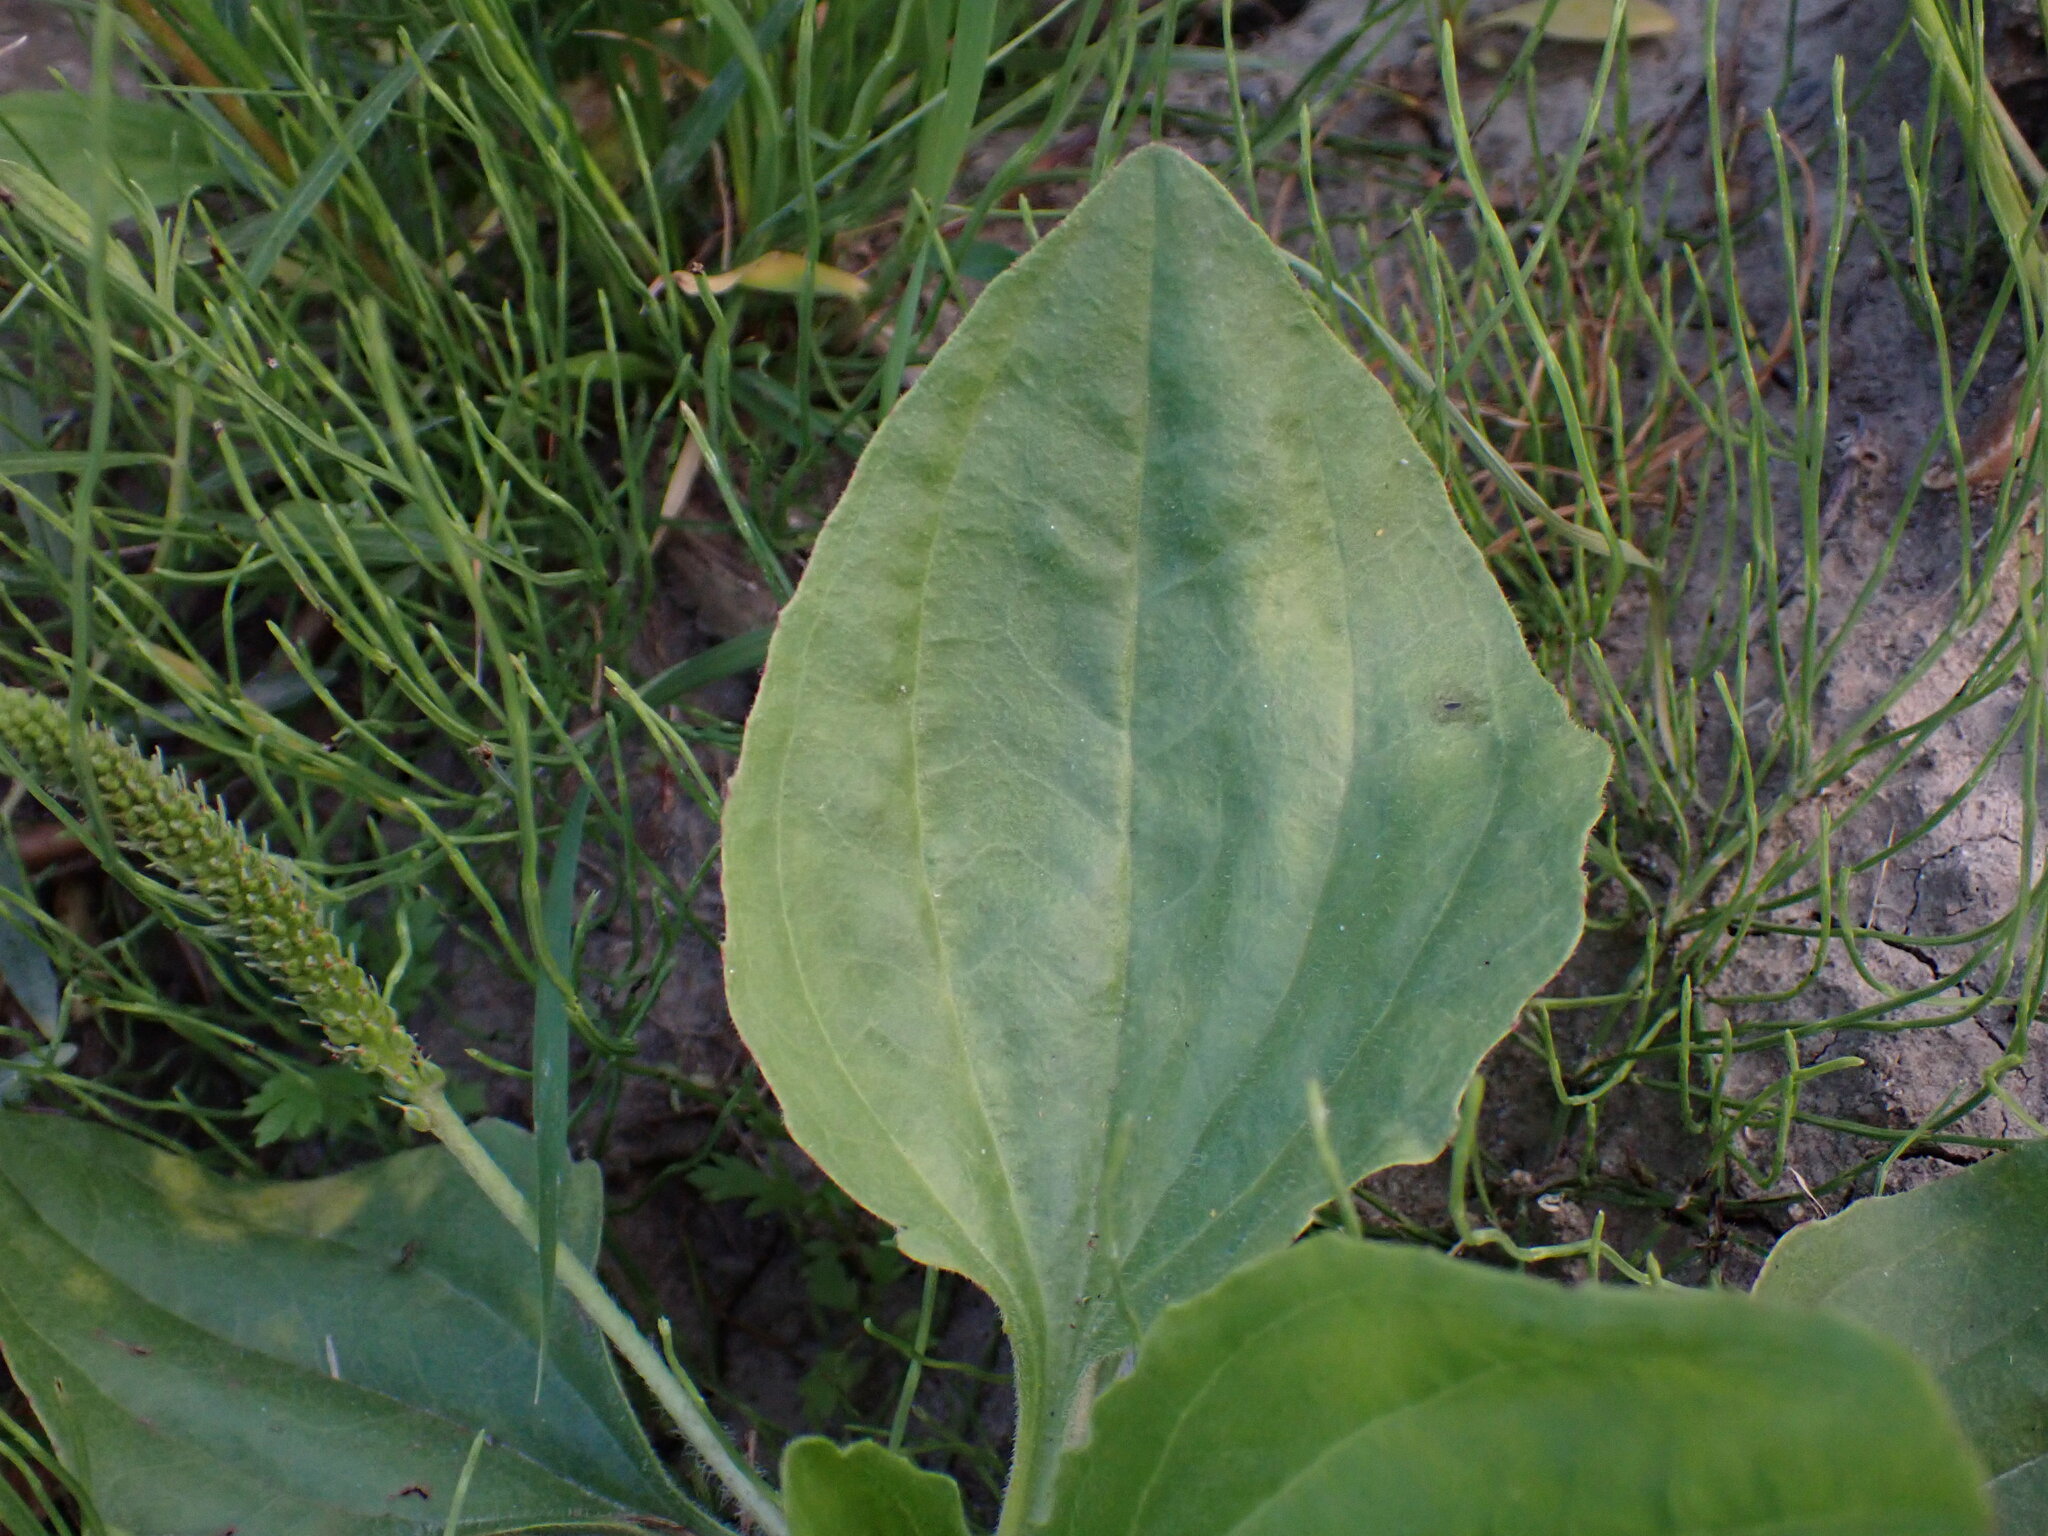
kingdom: Plantae
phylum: Tracheophyta
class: Magnoliopsida
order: Lamiales
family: Plantaginaceae
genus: Plantago
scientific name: Plantago major
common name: Common plantain
